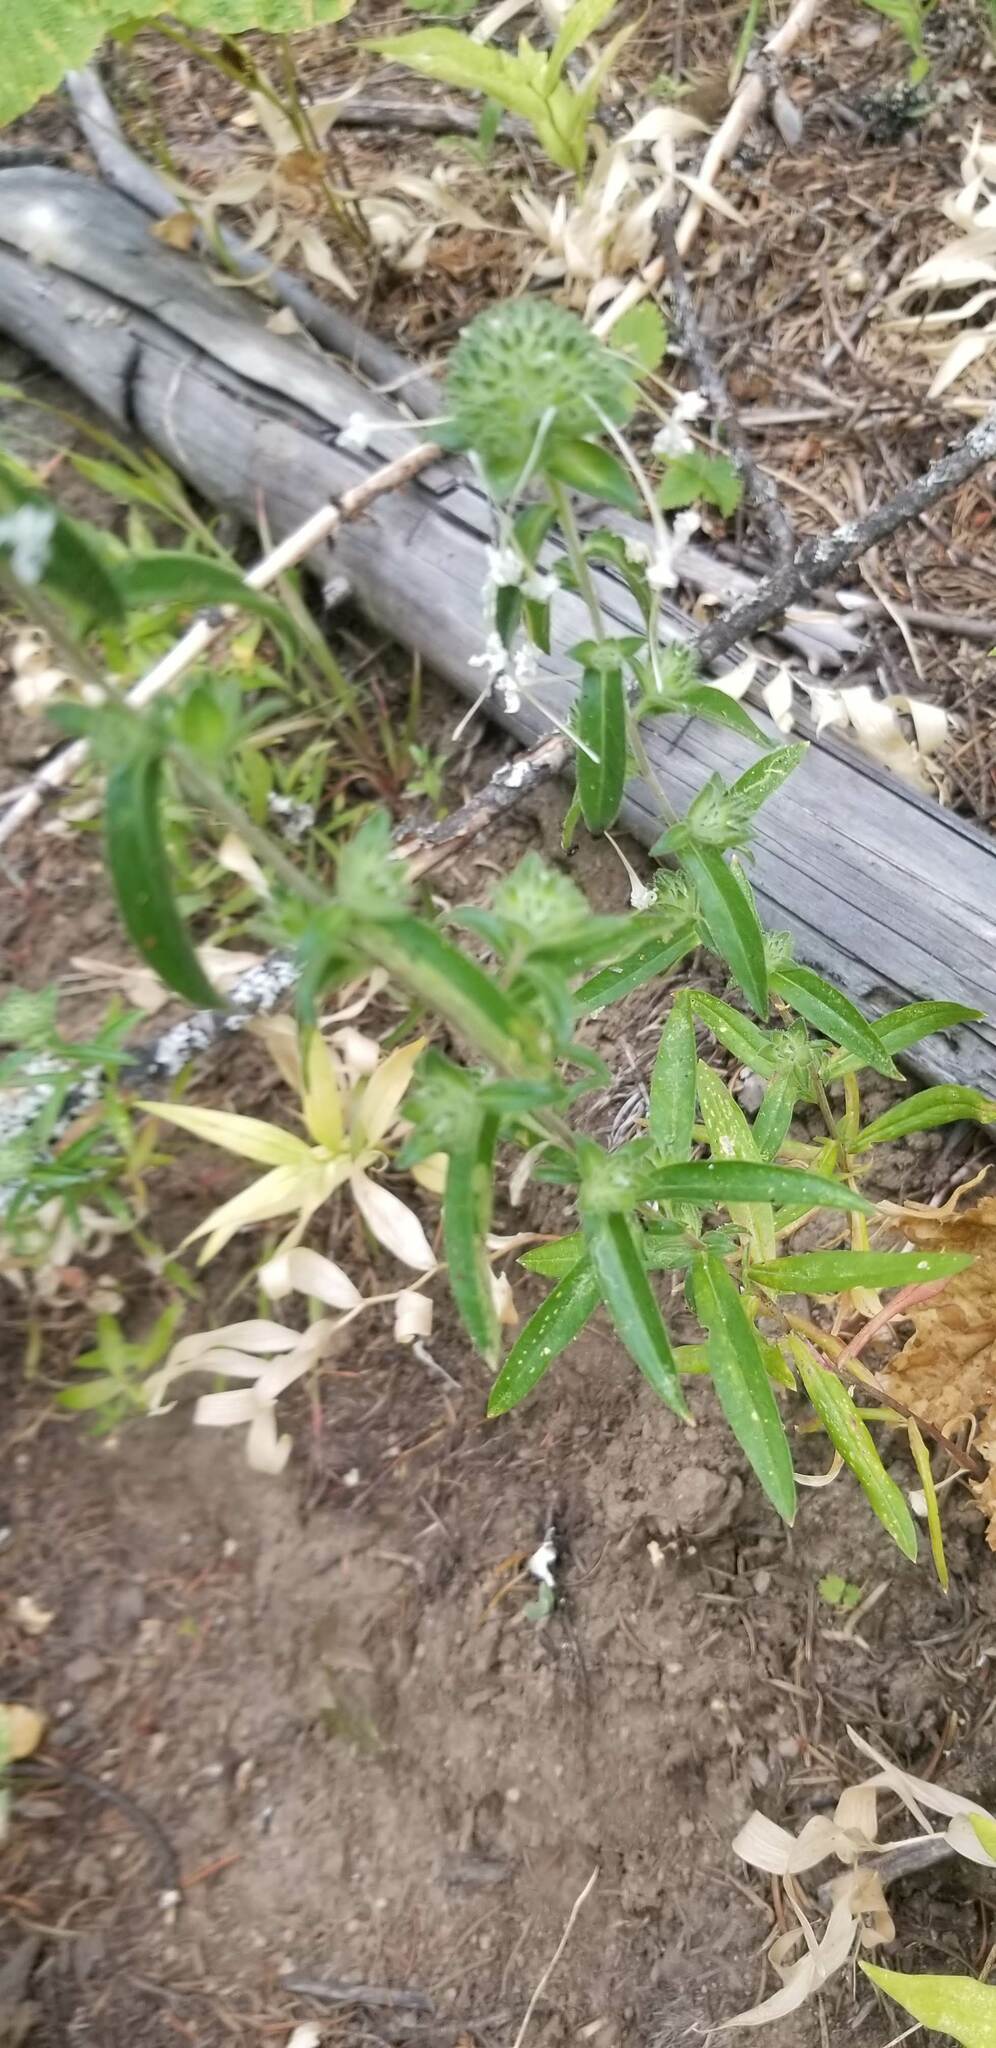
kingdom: Plantae
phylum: Tracheophyta
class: Magnoliopsida
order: Ericales
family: Polemoniaceae
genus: Collomia
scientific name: Collomia grandiflora
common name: California strawflower
